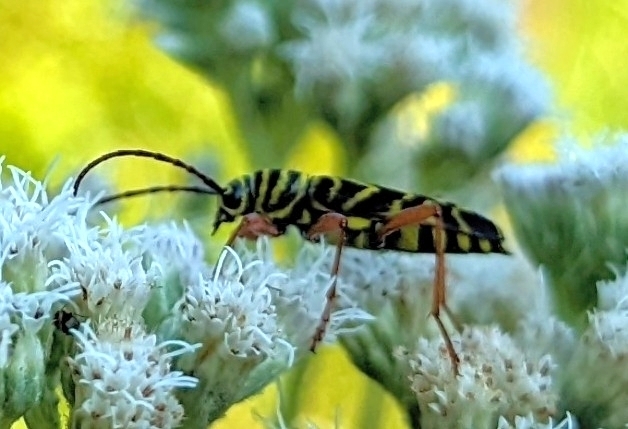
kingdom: Animalia
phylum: Arthropoda
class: Insecta
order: Coleoptera
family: Cerambycidae
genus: Megacyllene
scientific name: Megacyllene robiniae
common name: Locust borer
